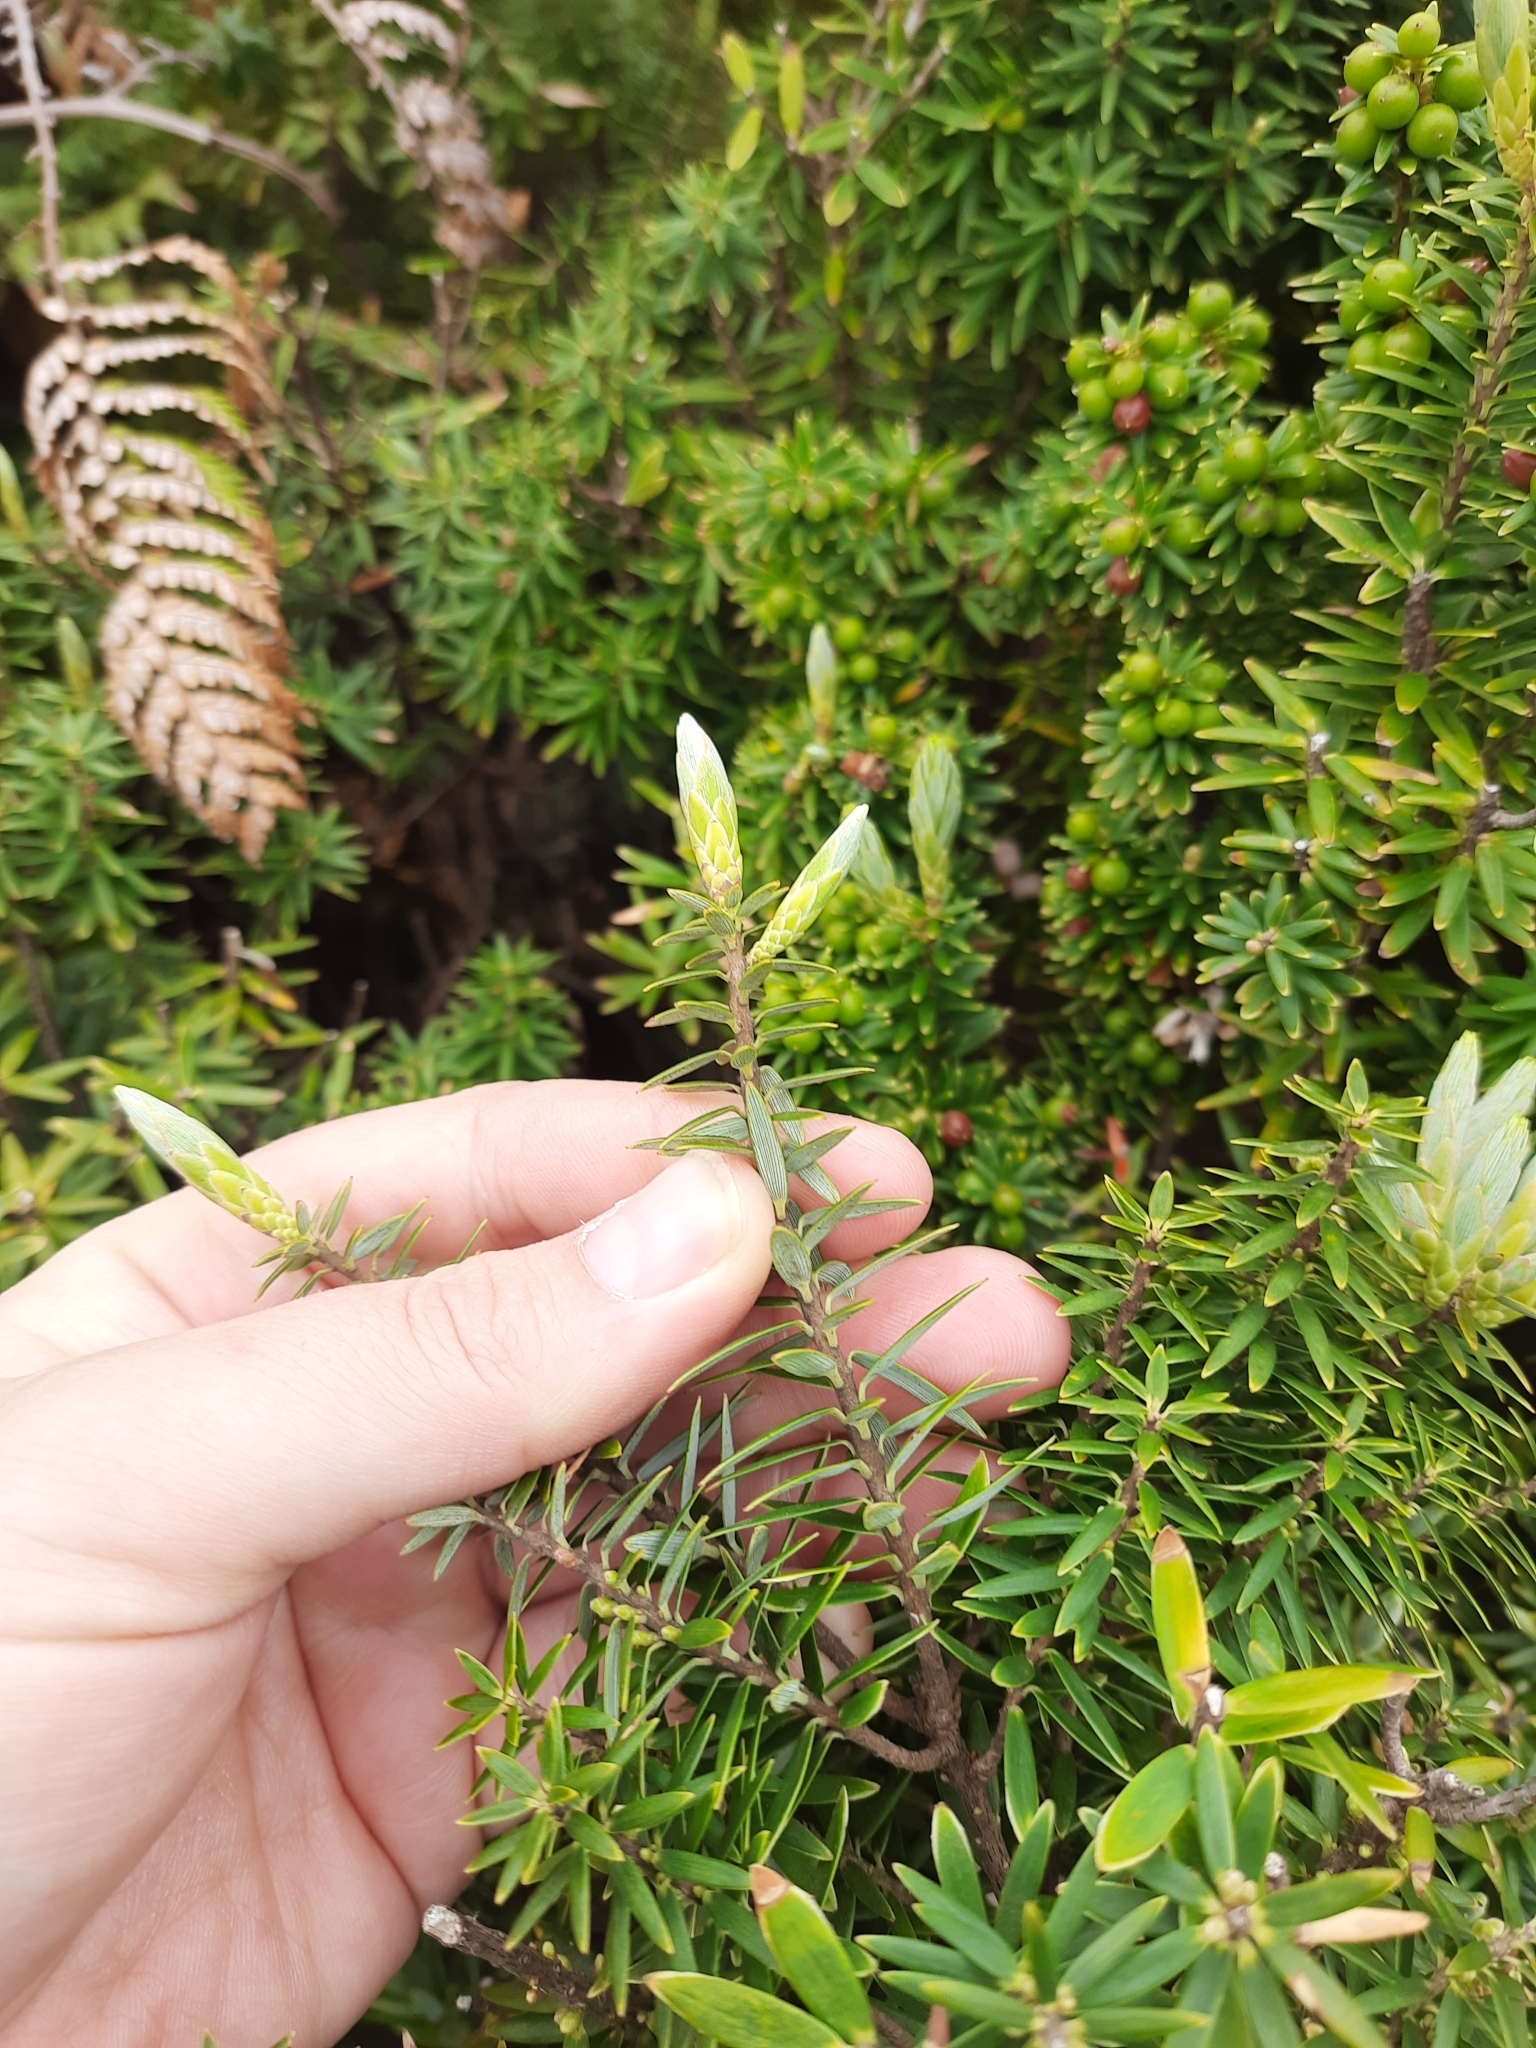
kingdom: Plantae
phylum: Tracheophyta
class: Magnoliopsida
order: Ericales
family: Ericaceae
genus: Leptecophylla
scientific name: Leptecophylla robusta
